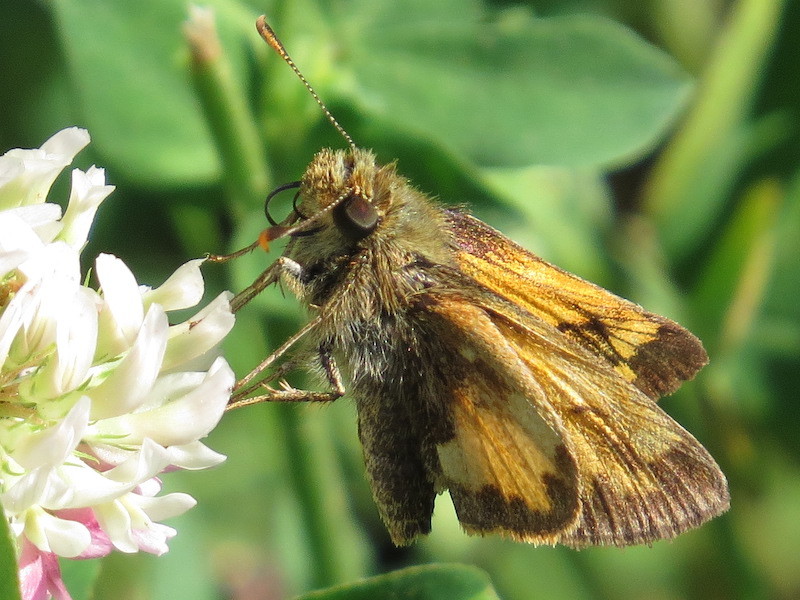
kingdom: Animalia
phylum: Arthropoda
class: Insecta
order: Lepidoptera
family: Hesperiidae
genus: Lon
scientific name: Lon hobomok
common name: Hobomok skipper
